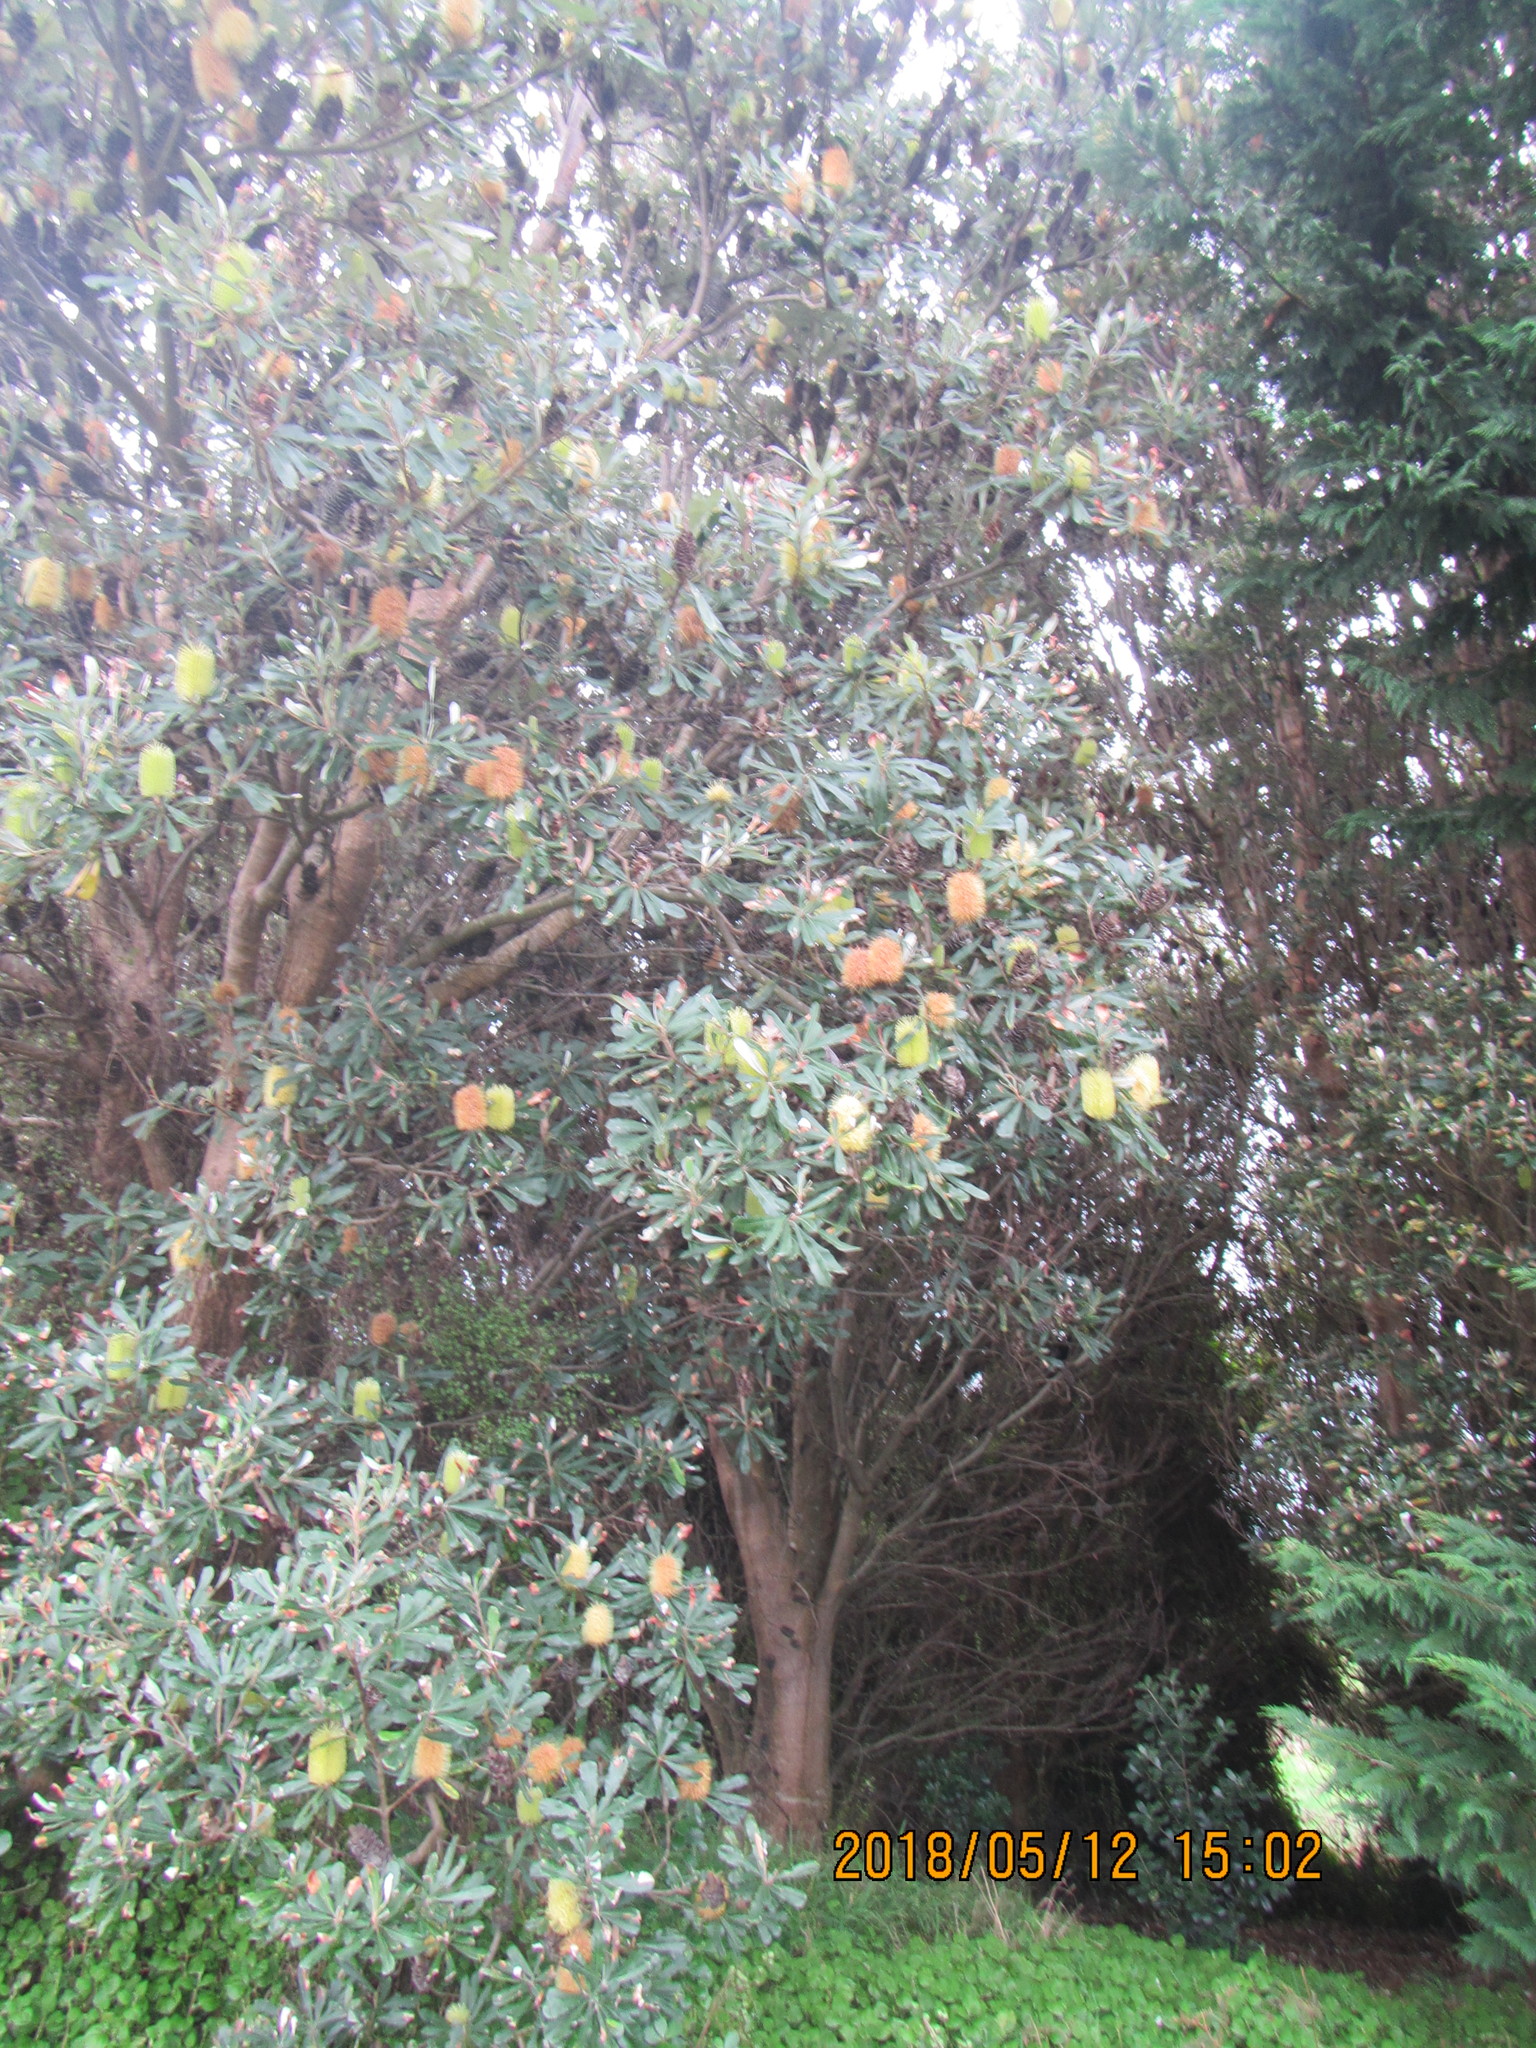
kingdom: Plantae
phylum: Tracheophyta
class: Magnoliopsida
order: Proteales
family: Proteaceae
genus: Banksia
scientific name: Banksia integrifolia
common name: White-honeysuckle
